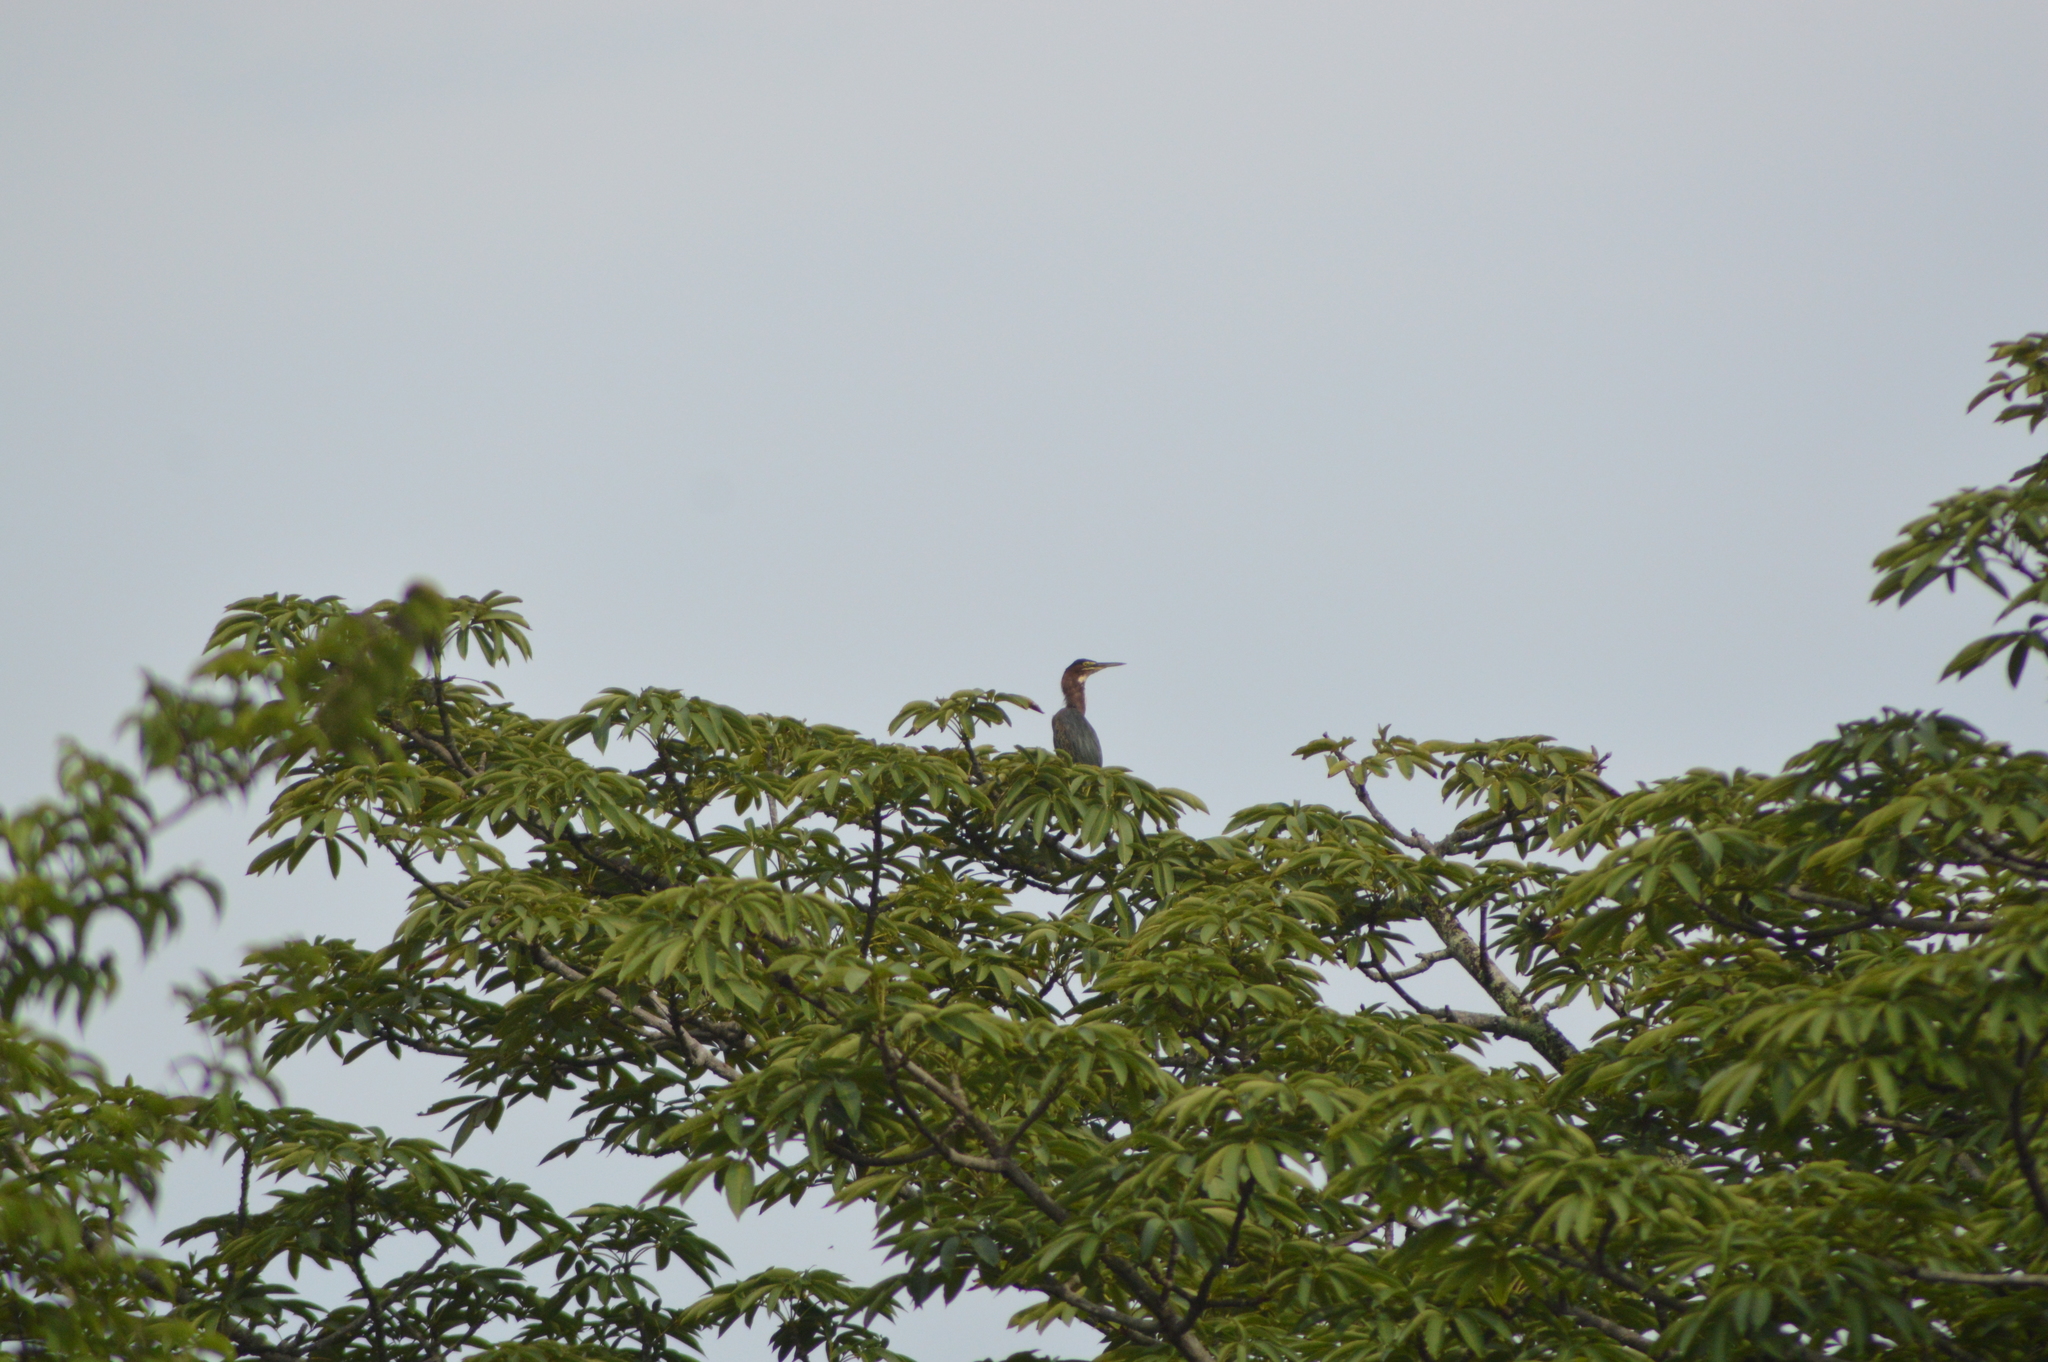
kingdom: Animalia
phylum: Chordata
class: Aves
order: Pelecaniformes
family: Ardeidae
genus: Butorides
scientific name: Butorides virescens
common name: Green heron
